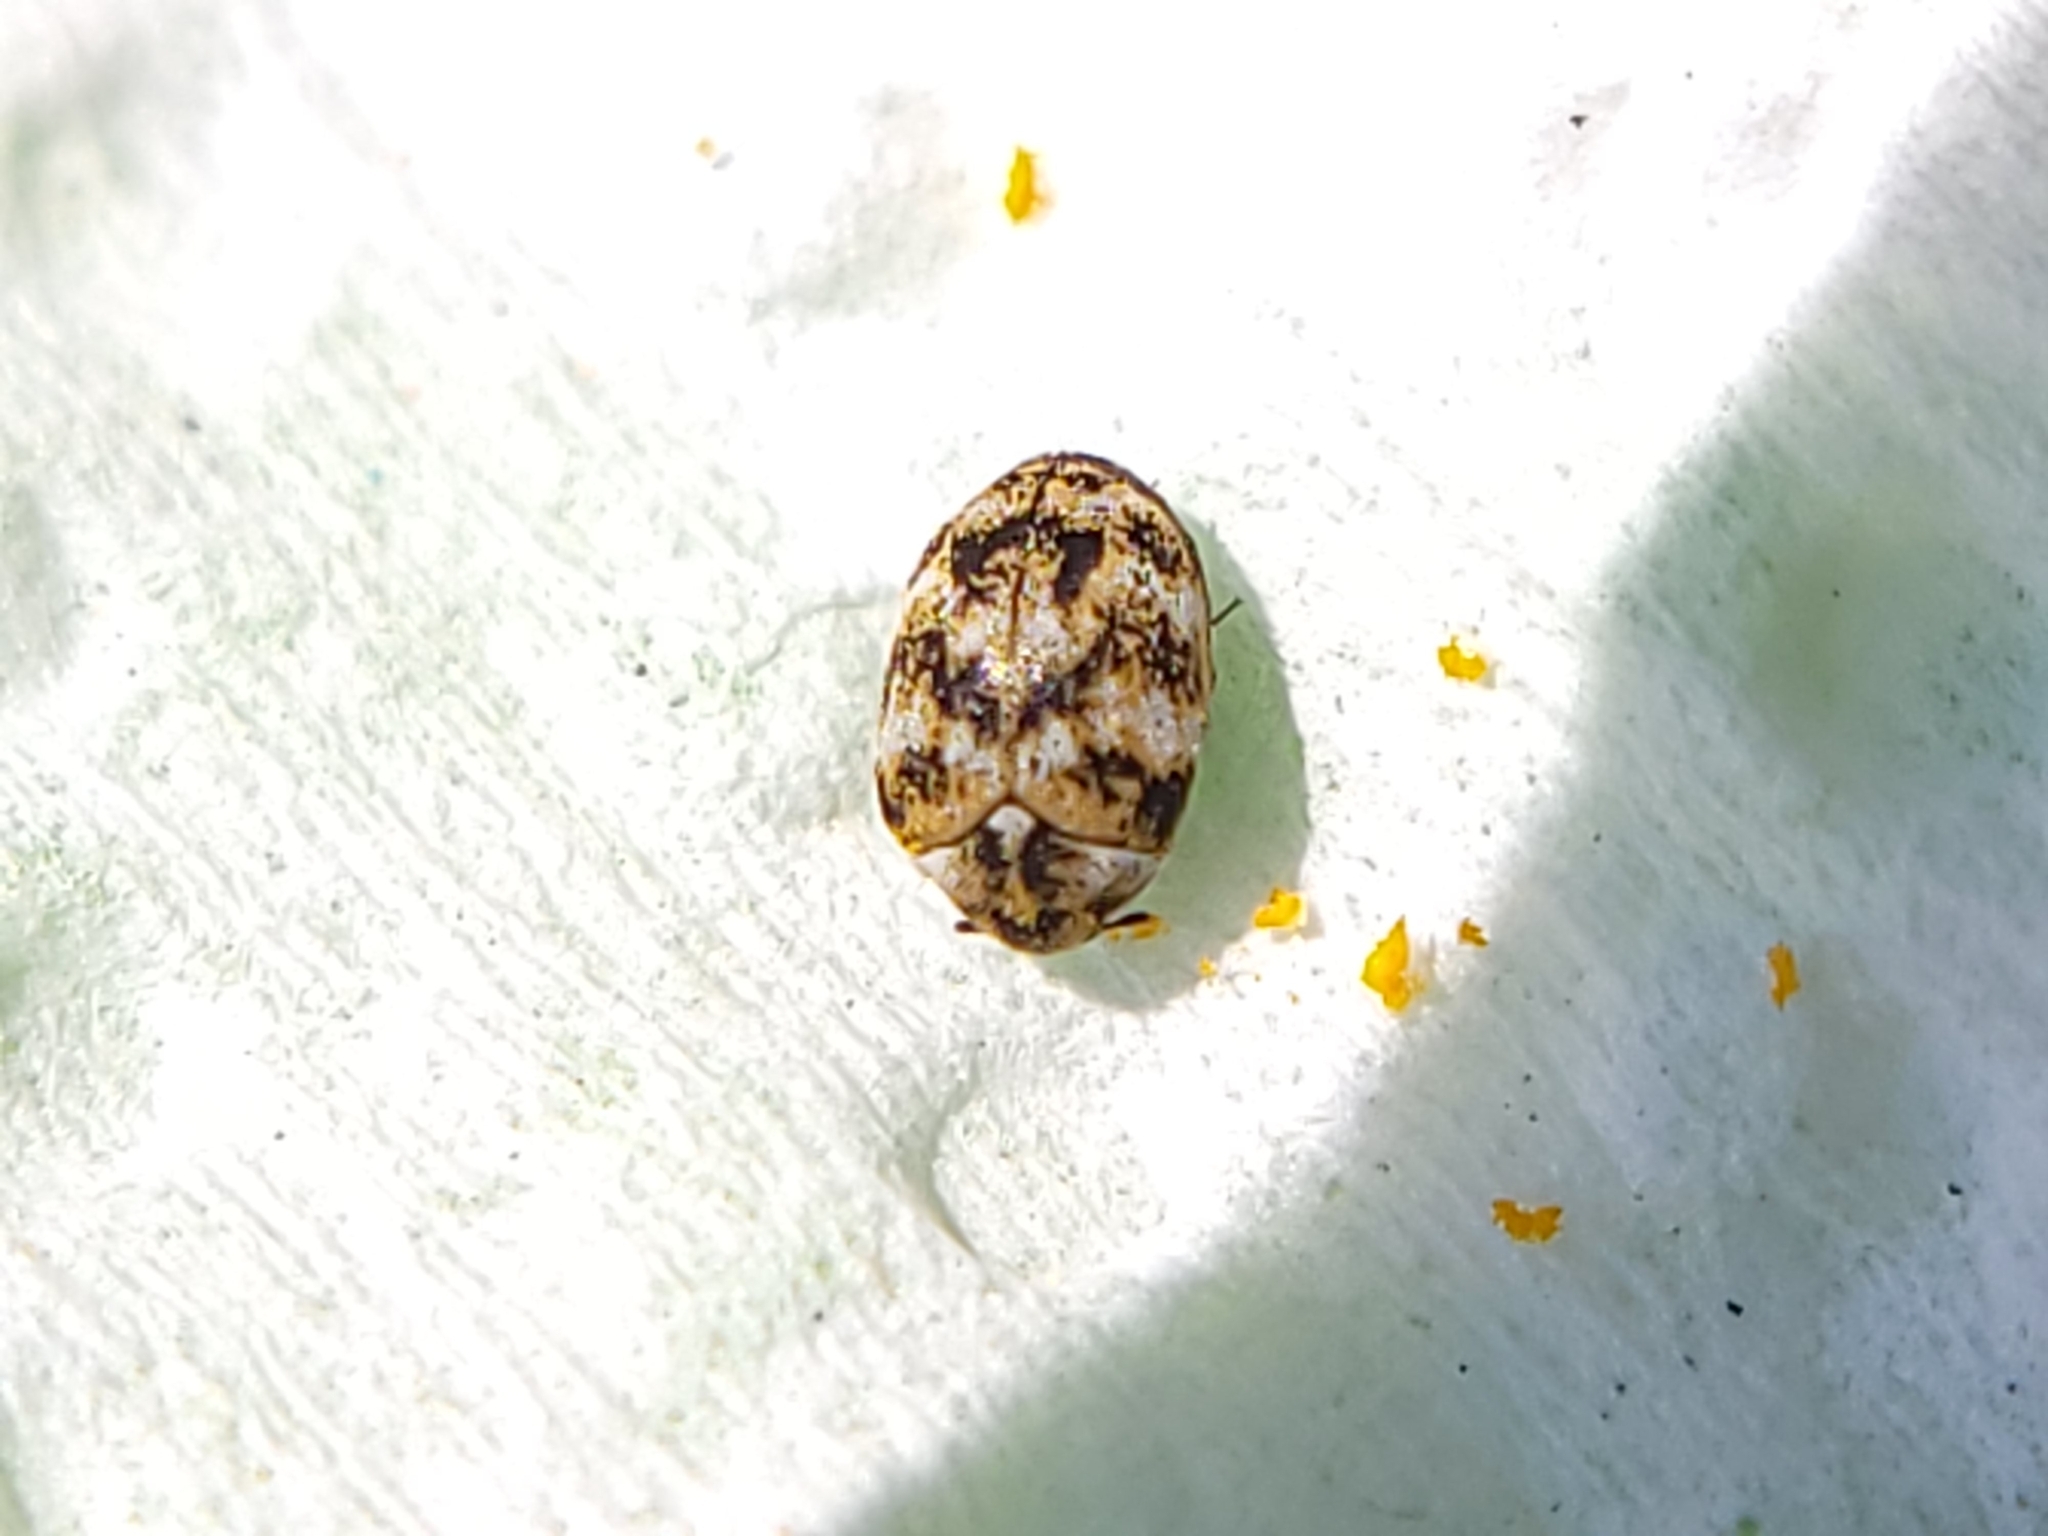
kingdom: Animalia
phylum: Arthropoda
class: Insecta
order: Coleoptera
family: Dermestidae
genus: Anthrenus
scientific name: Anthrenus verbasci
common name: Varied carpet beetle
